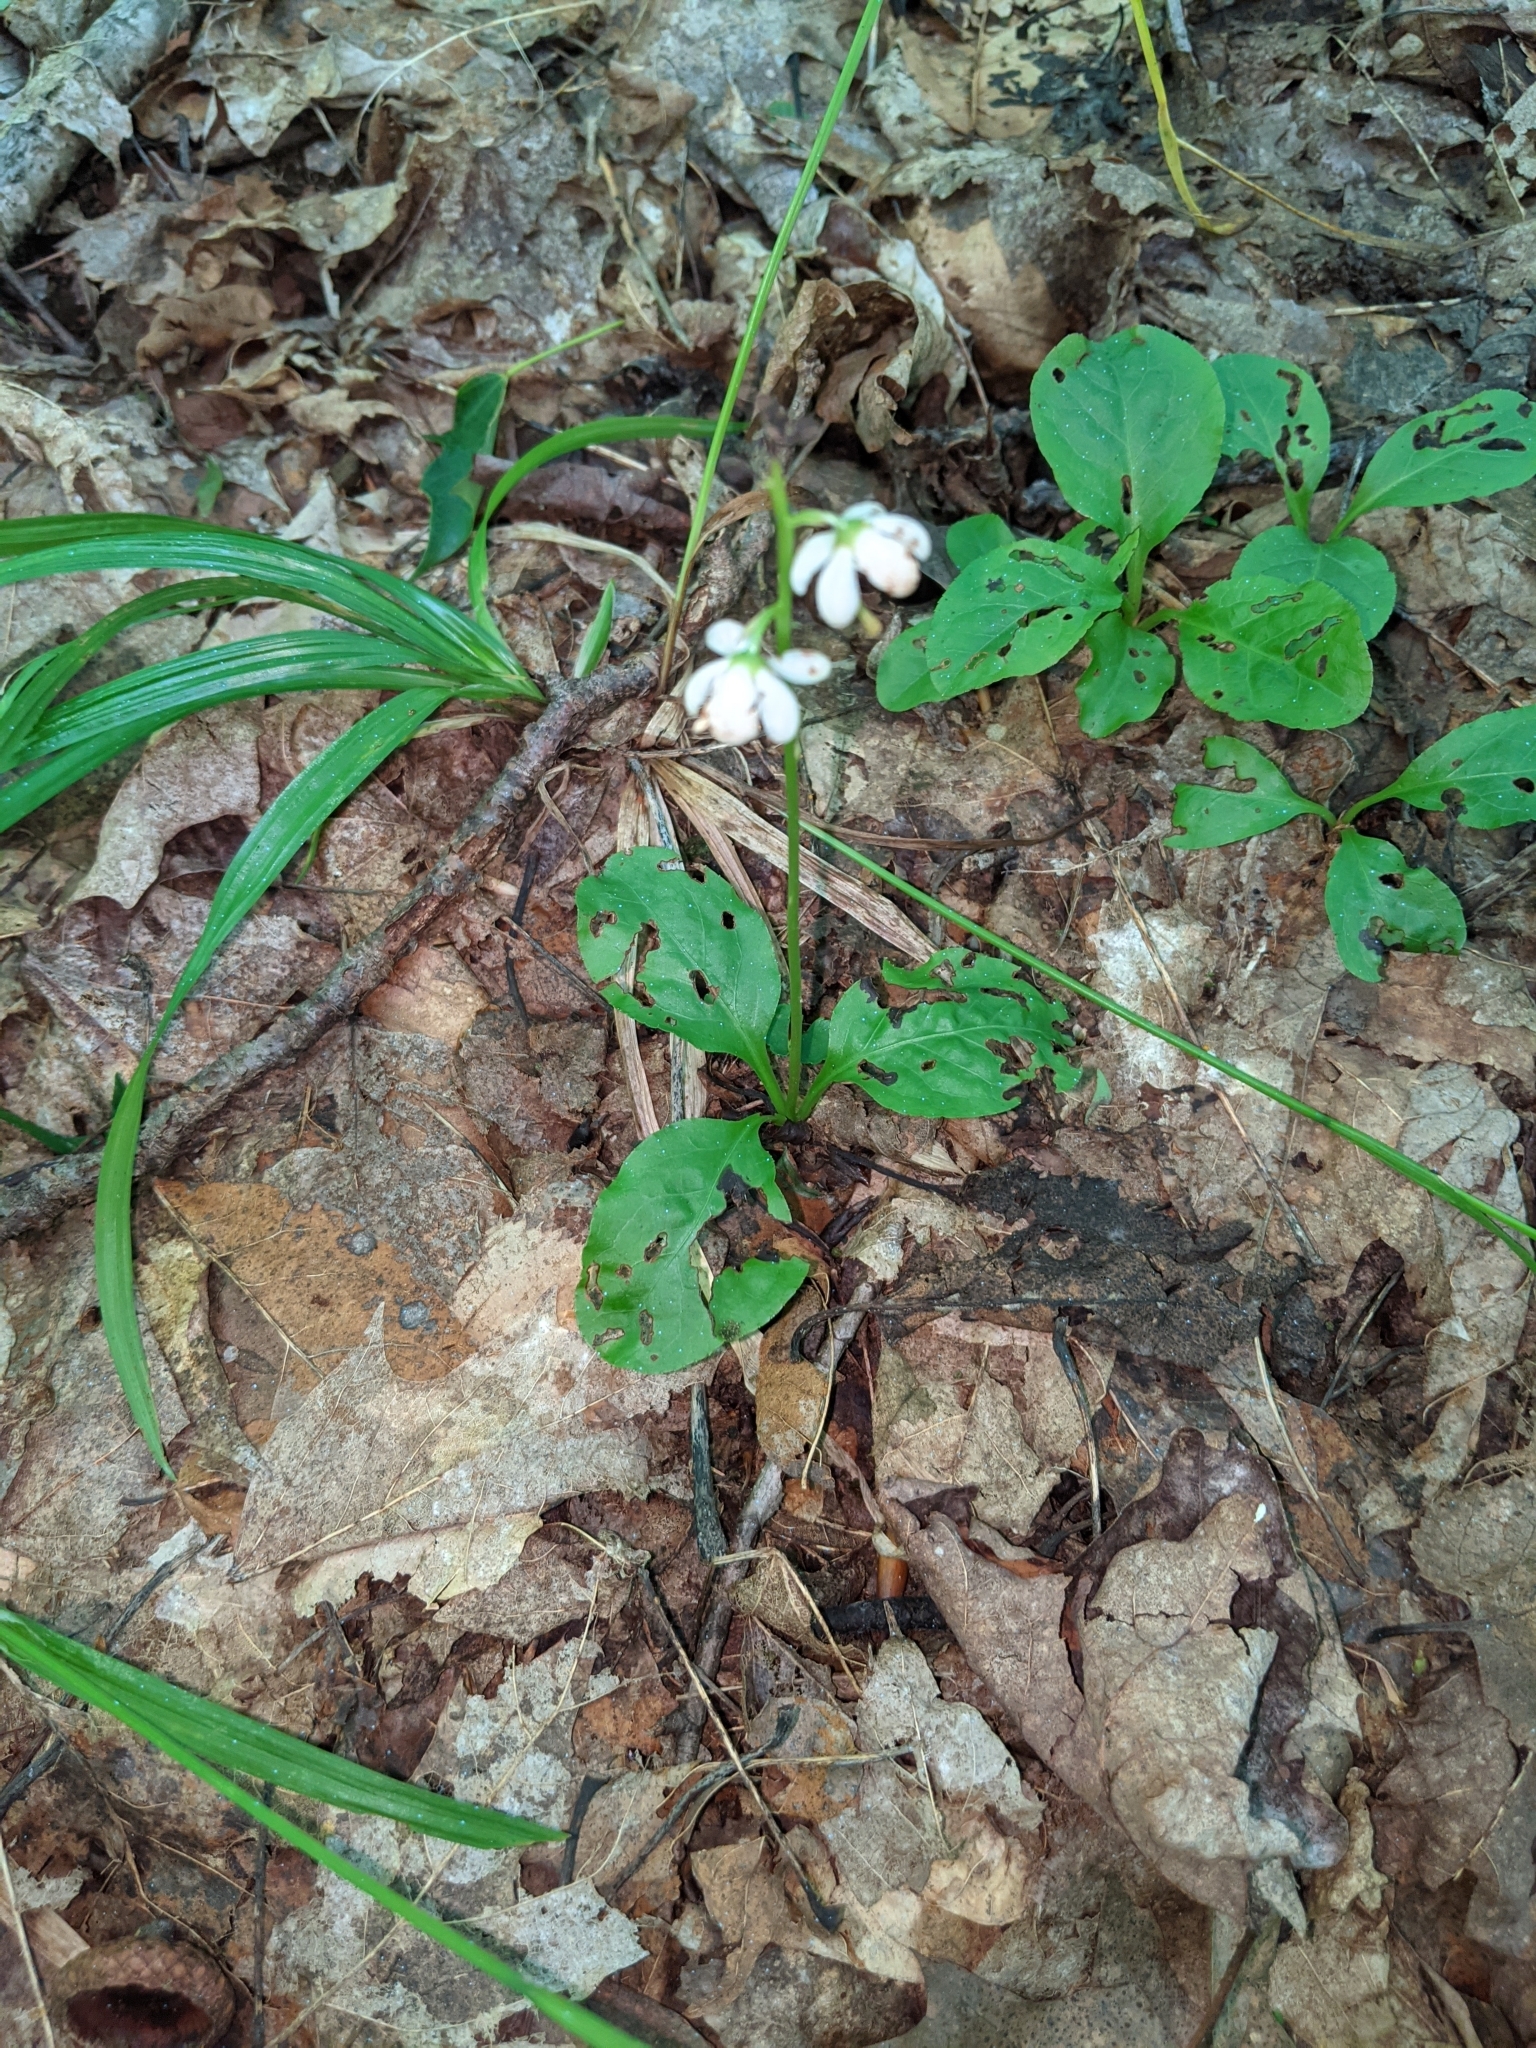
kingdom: Plantae
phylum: Tracheophyta
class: Magnoliopsida
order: Ericales
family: Ericaceae
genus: Pyrola
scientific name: Pyrola elliptica
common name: Shinleaf
